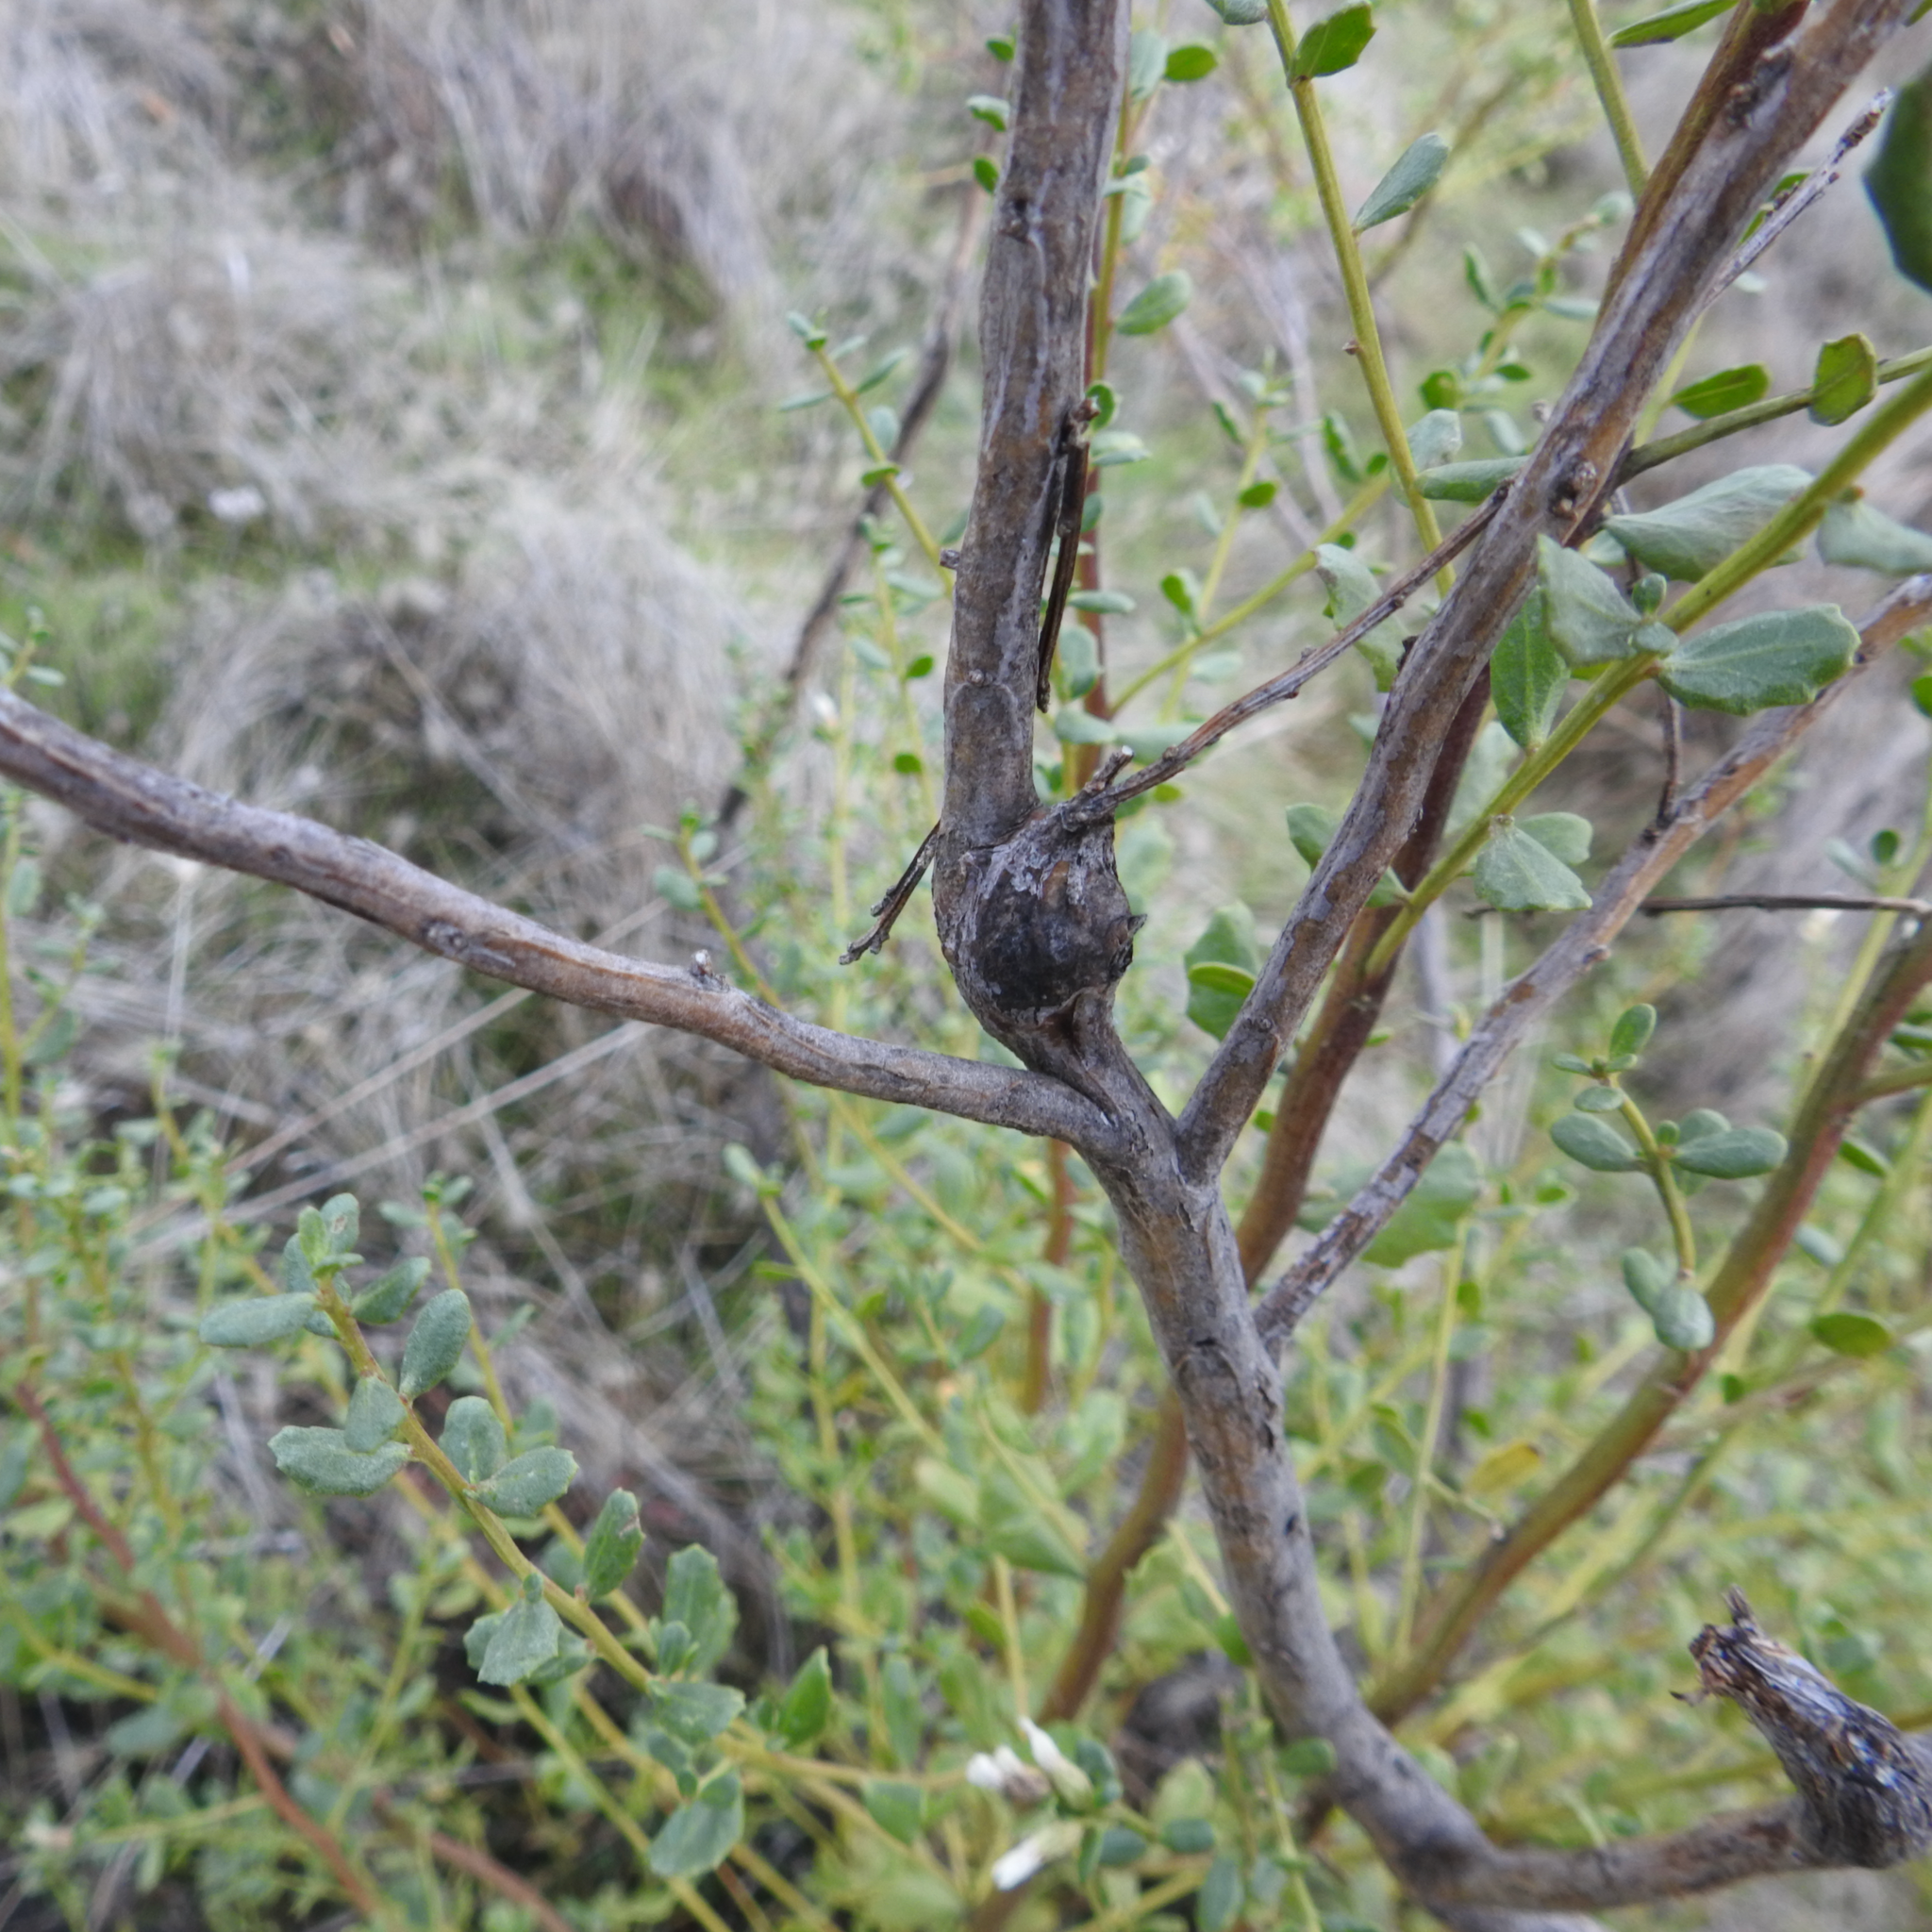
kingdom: Animalia
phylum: Arthropoda
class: Insecta
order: Lepidoptera
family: Gelechiidae
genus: Gnorimoschema
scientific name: Gnorimoschema baccharisella
